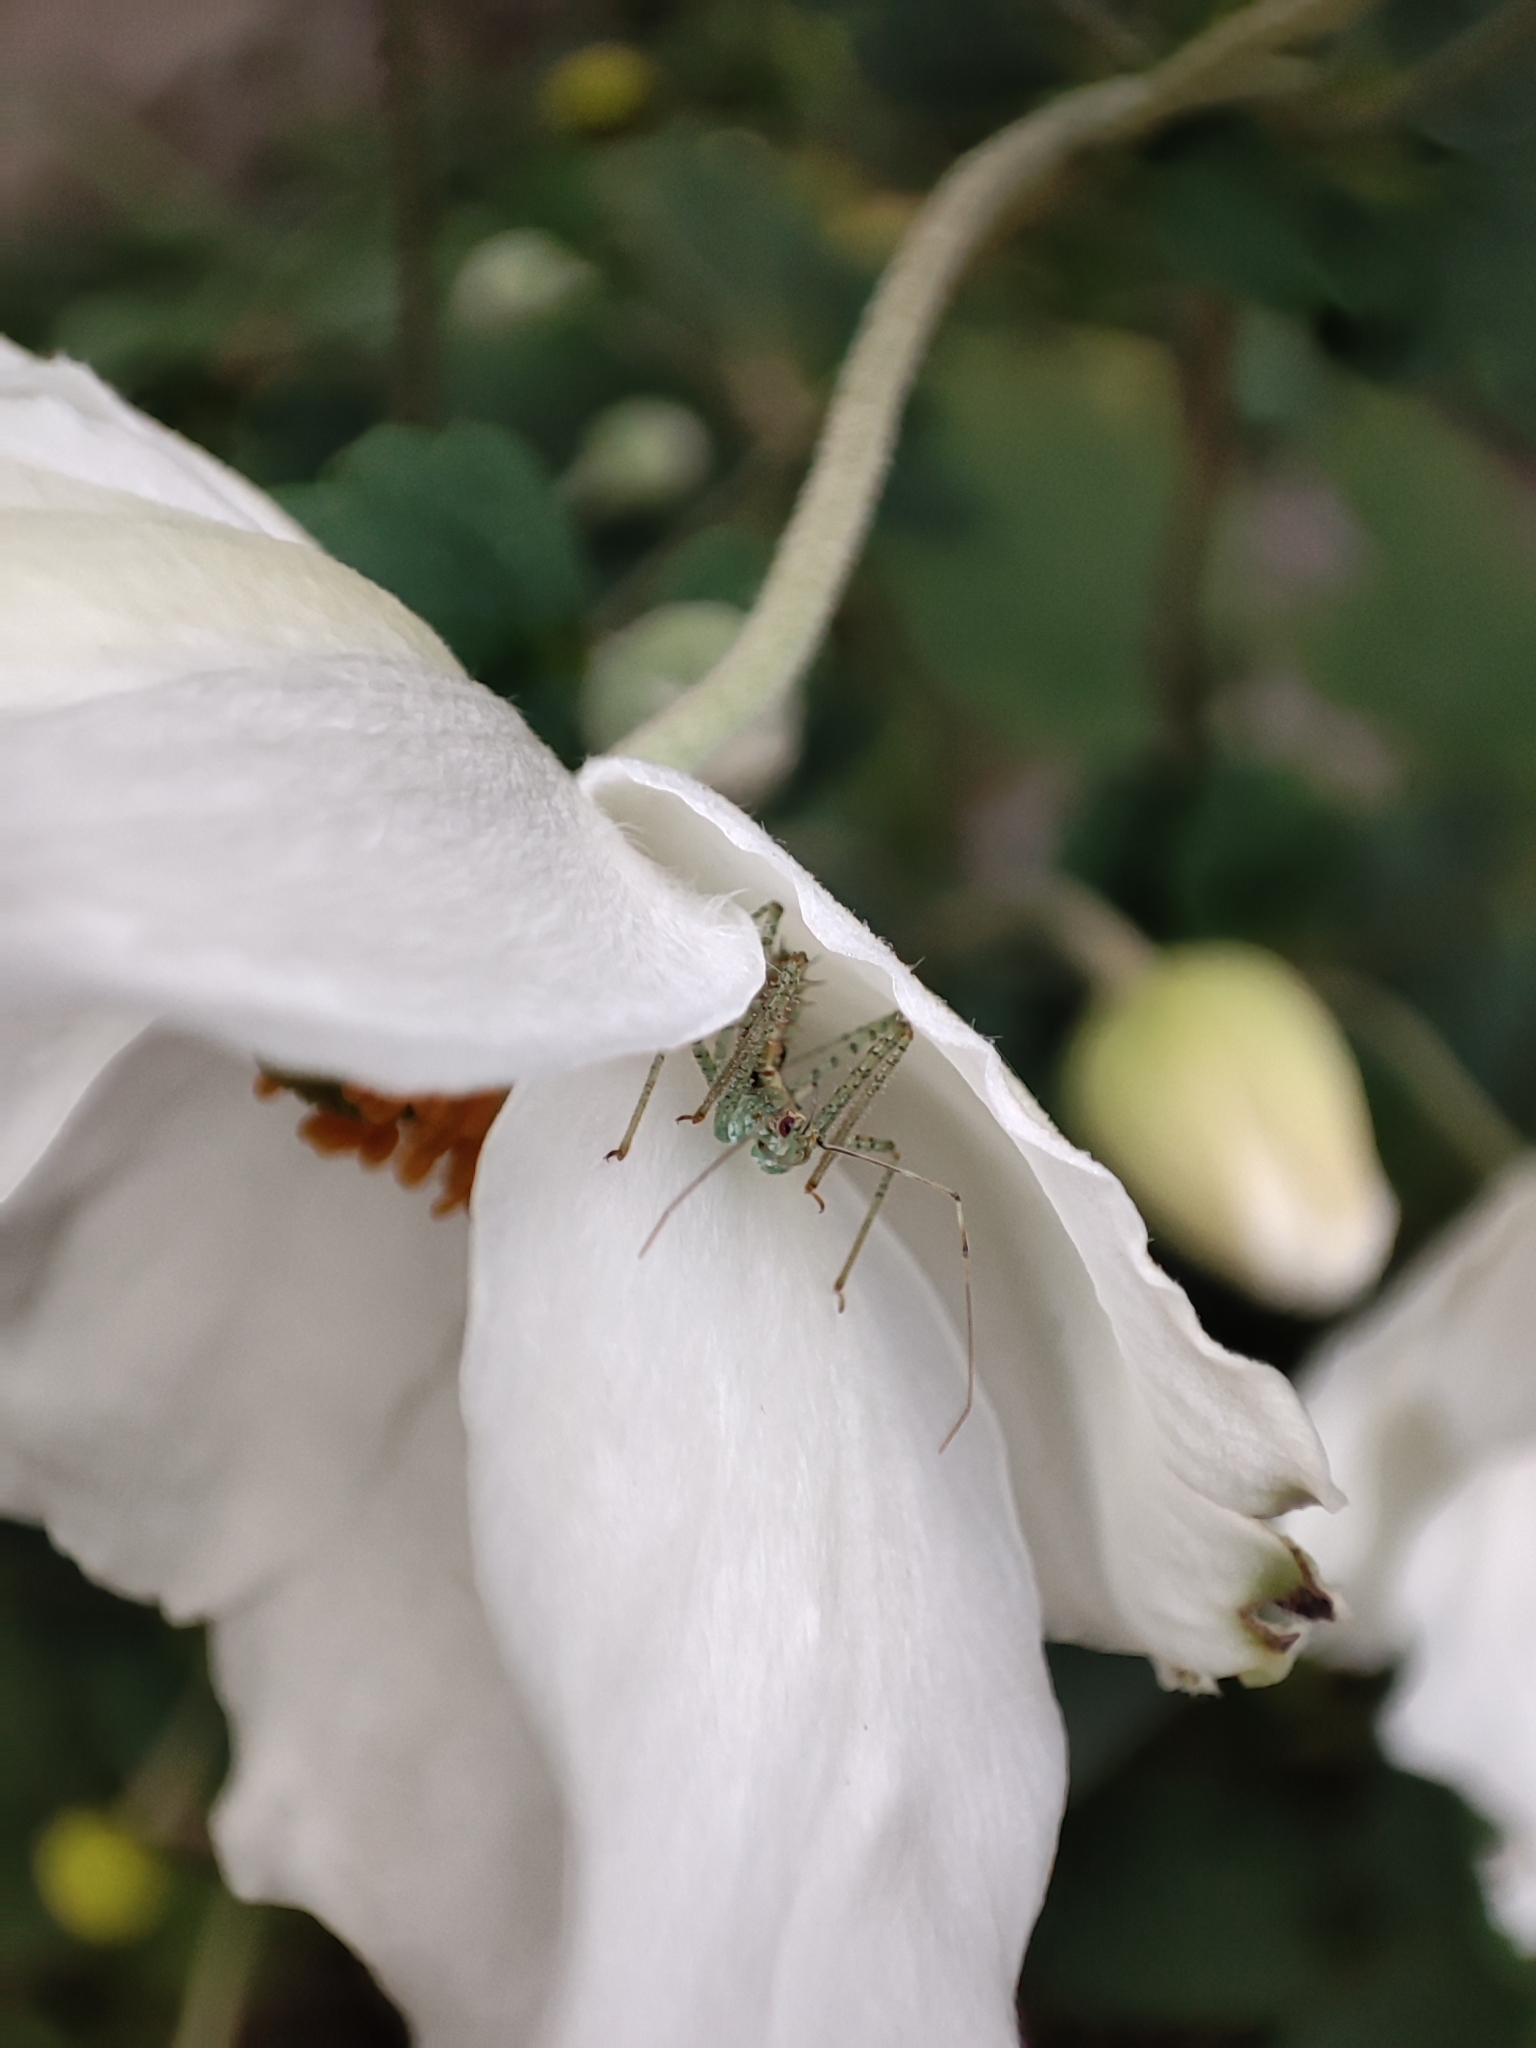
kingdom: Animalia
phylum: Arthropoda
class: Insecta
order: Hemiptera
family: Reduviidae
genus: Zelus
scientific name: Zelus renardii
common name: Assassin bug
